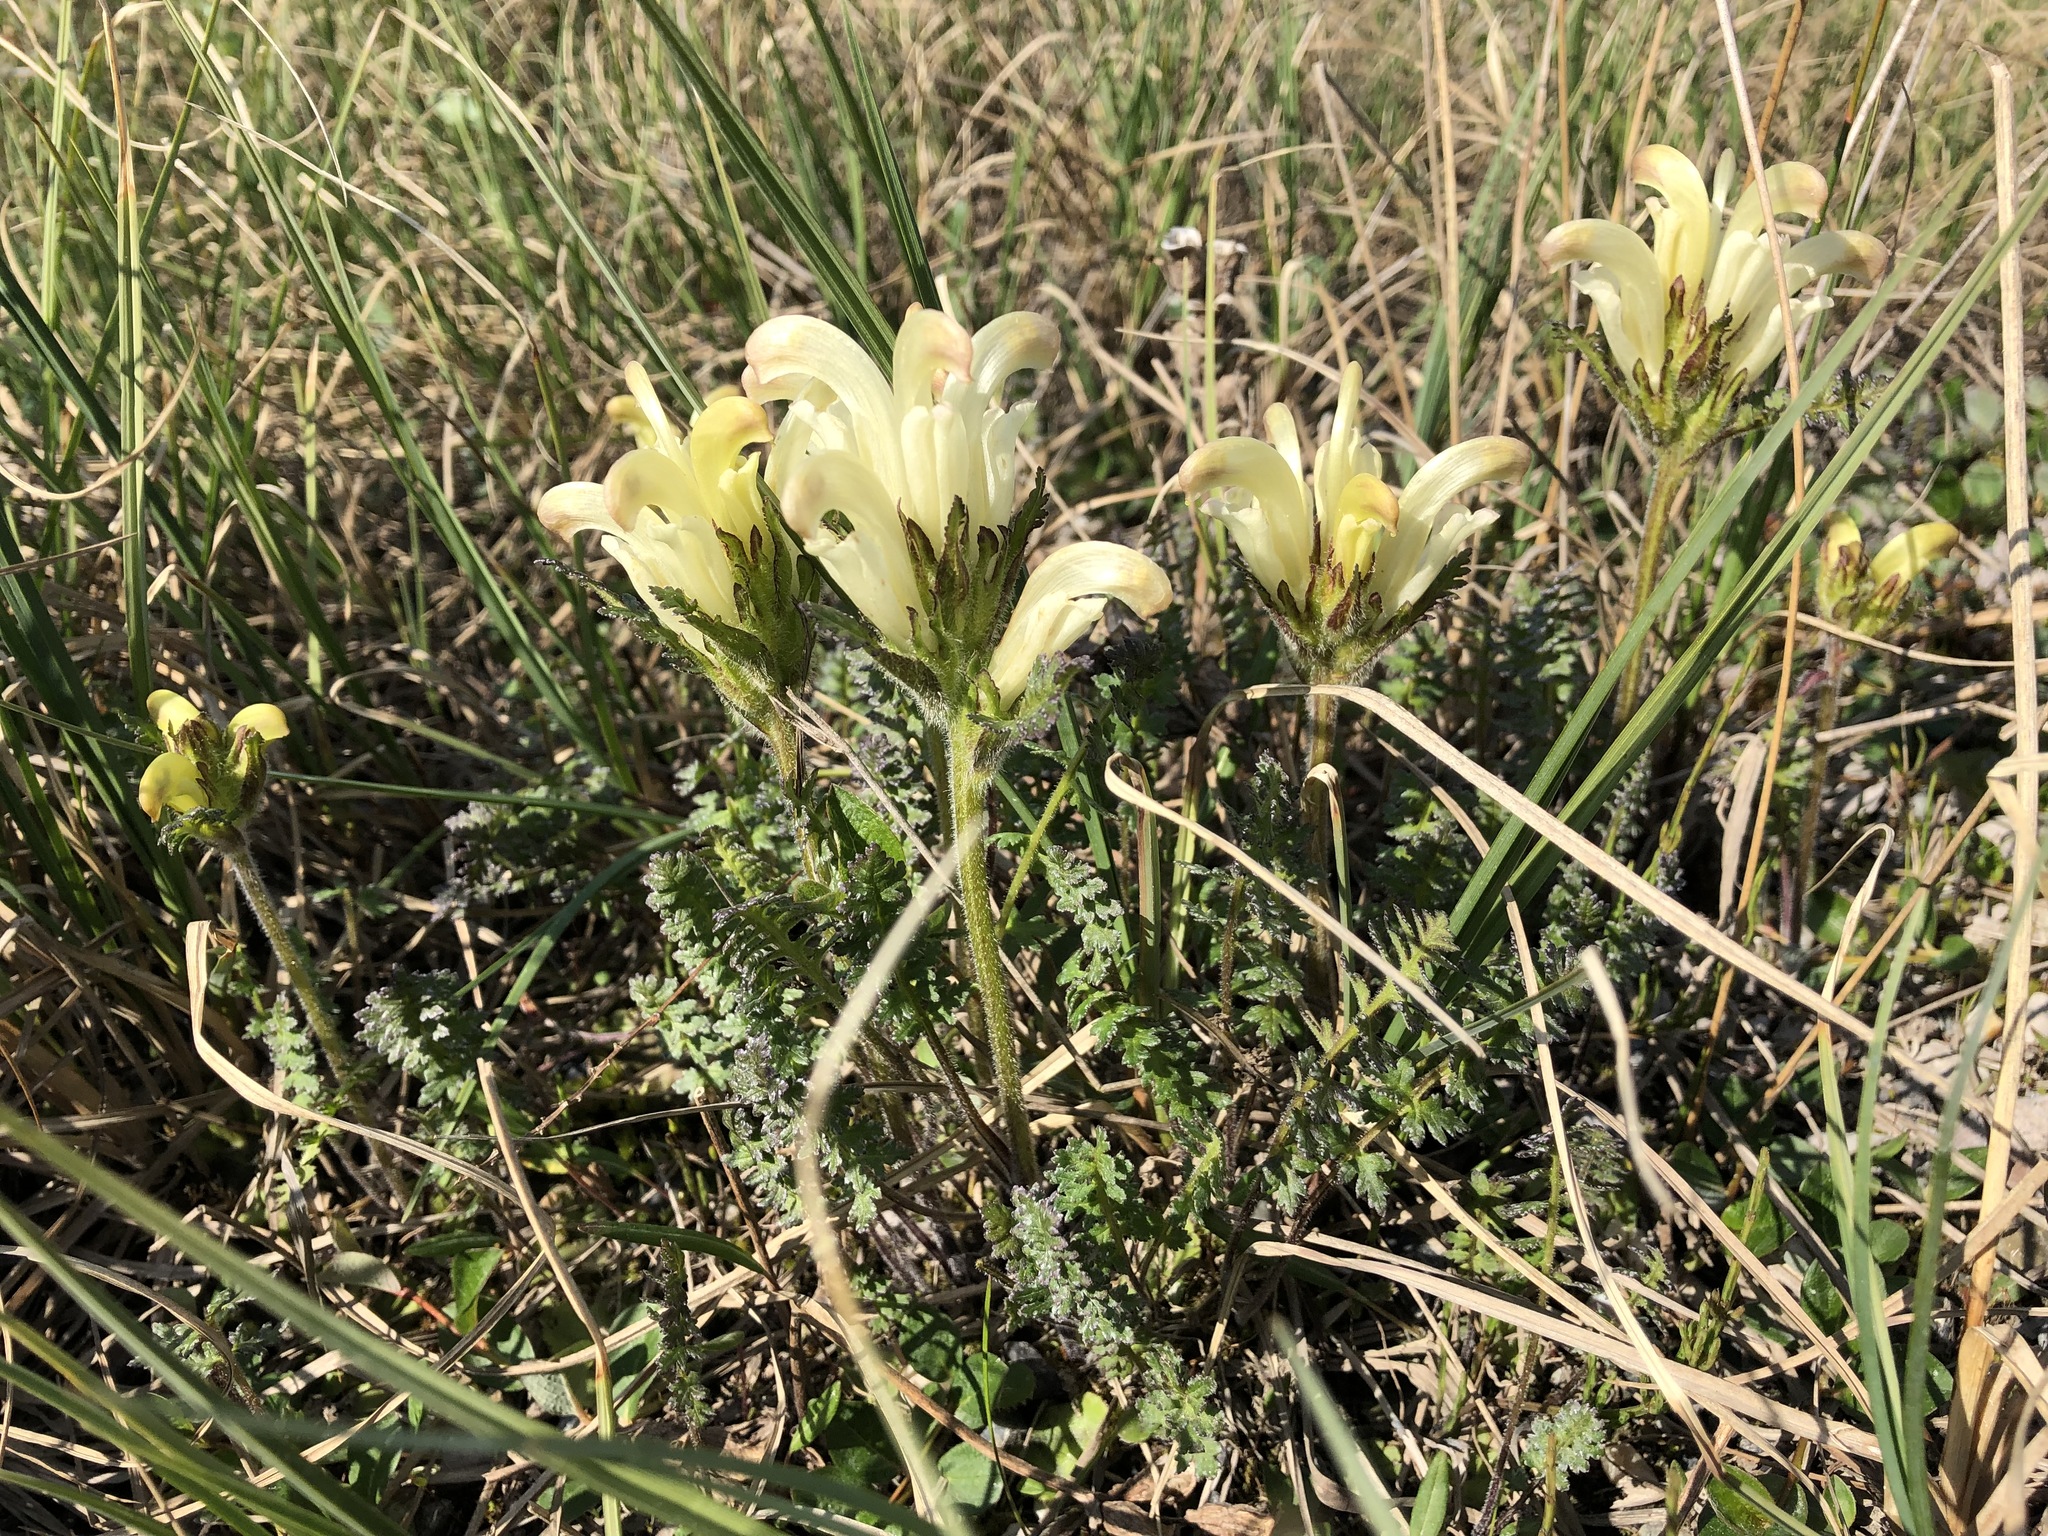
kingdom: Plantae
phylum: Tracheophyta
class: Magnoliopsida
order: Lamiales
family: Orobanchaceae
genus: Pedicularis
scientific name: Pedicularis capitata
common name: Capitate lousewort
